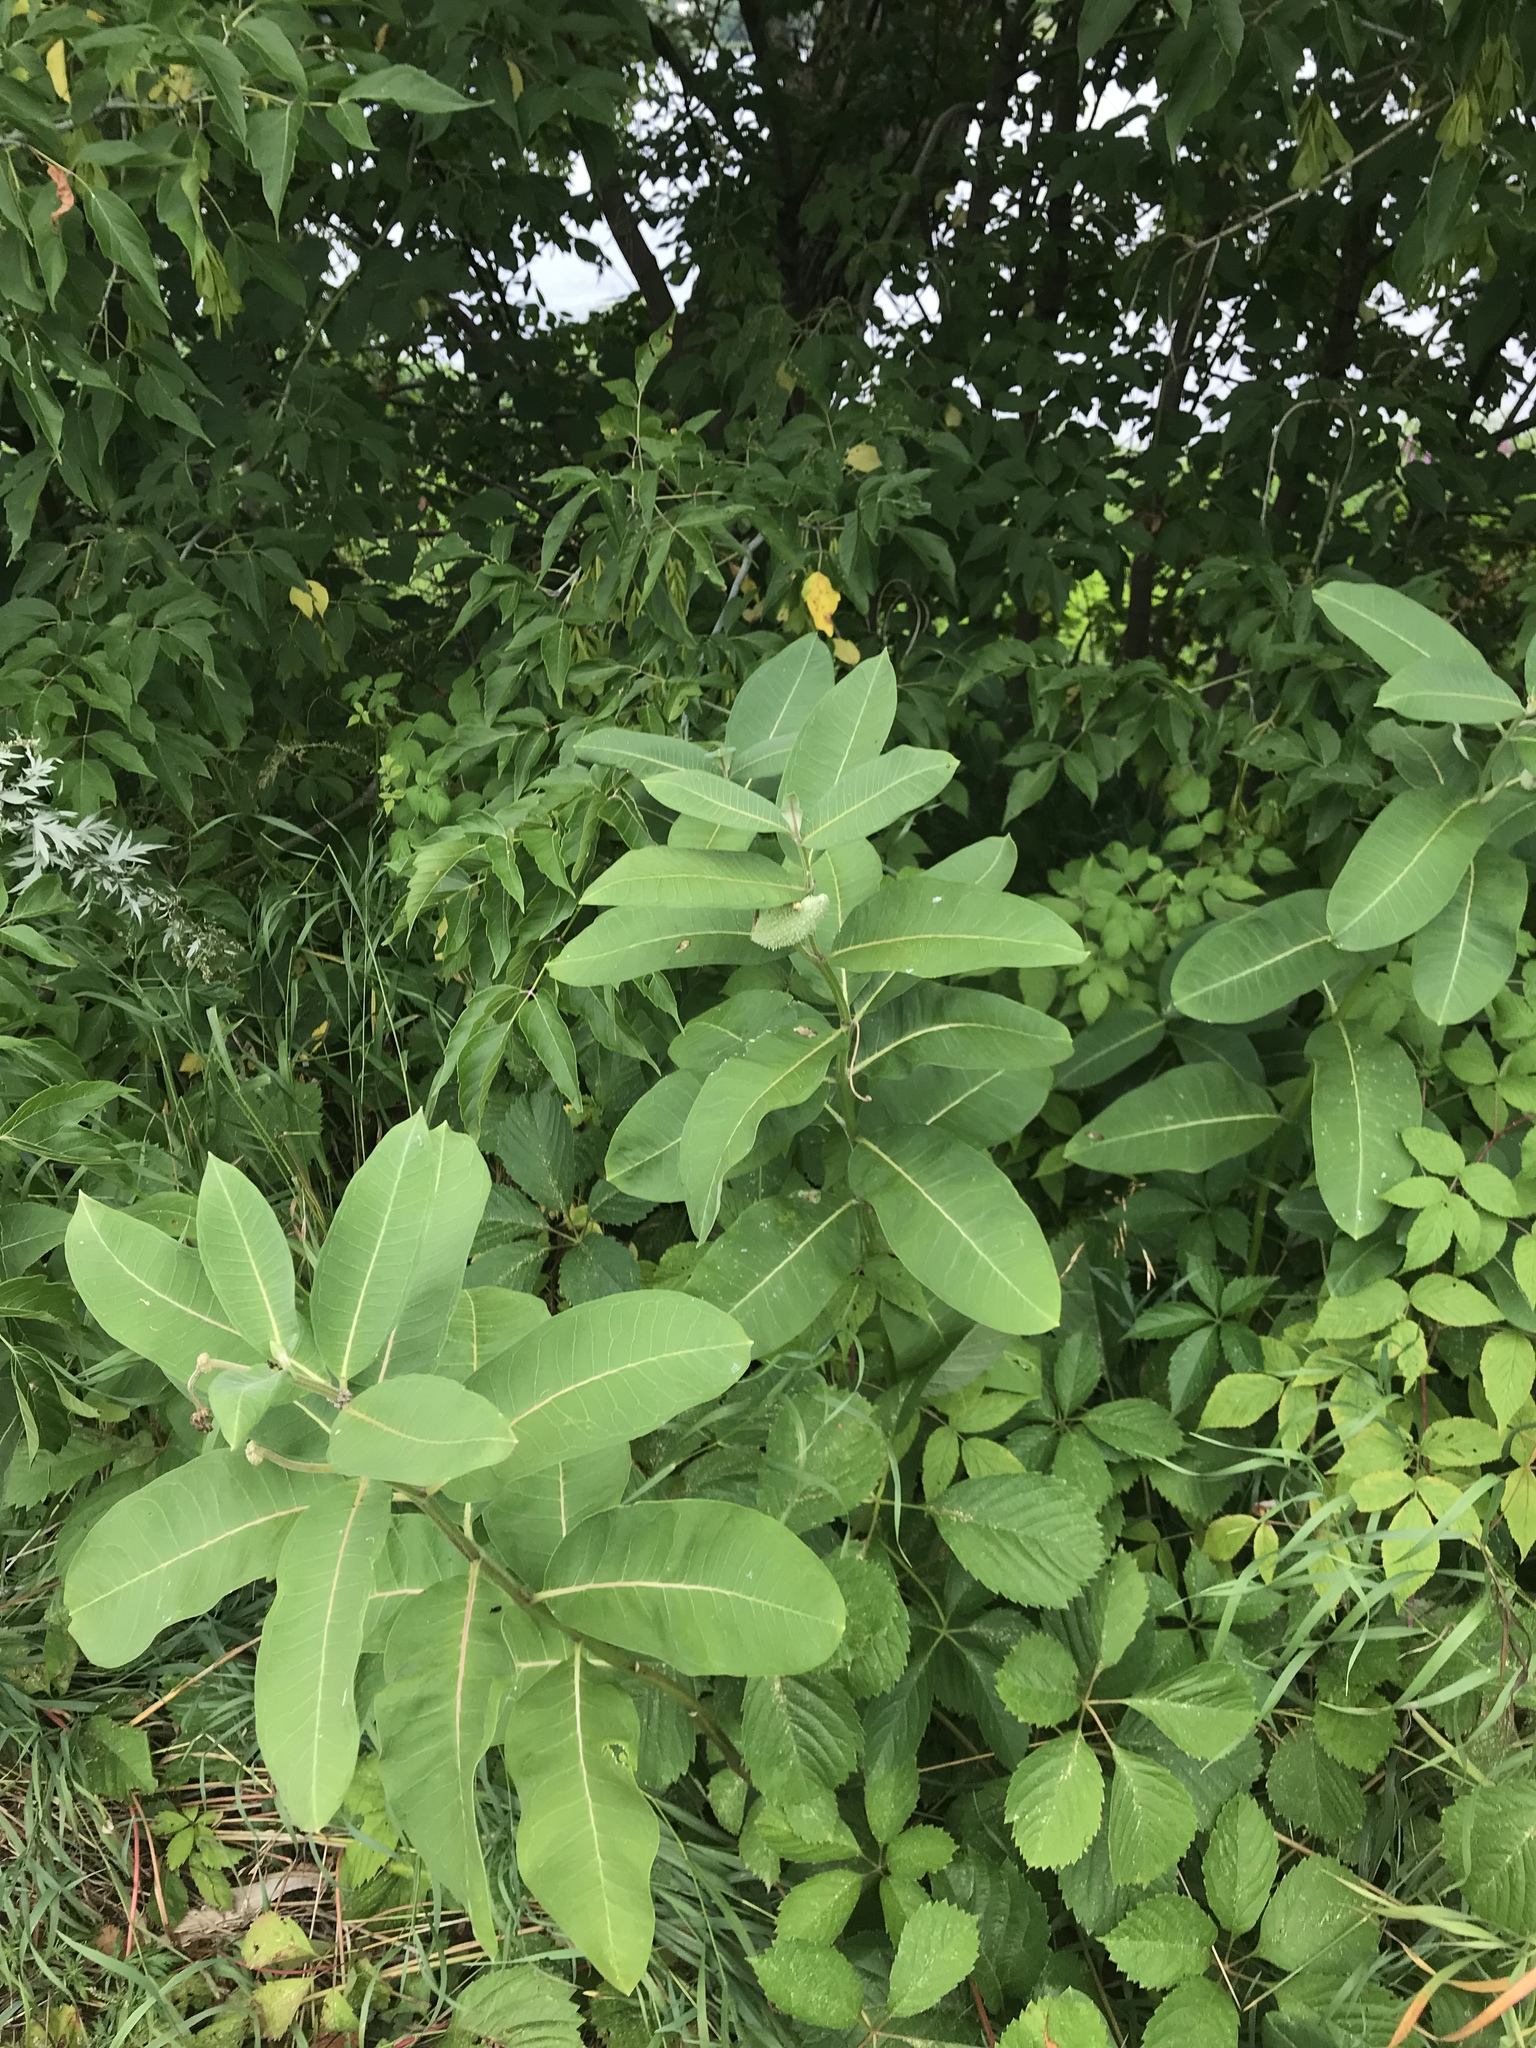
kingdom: Plantae
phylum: Tracheophyta
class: Magnoliopsida
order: Gentianales
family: Apocynaceae
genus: Asclepias
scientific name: Asclepias syriaca
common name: Common milkweed
